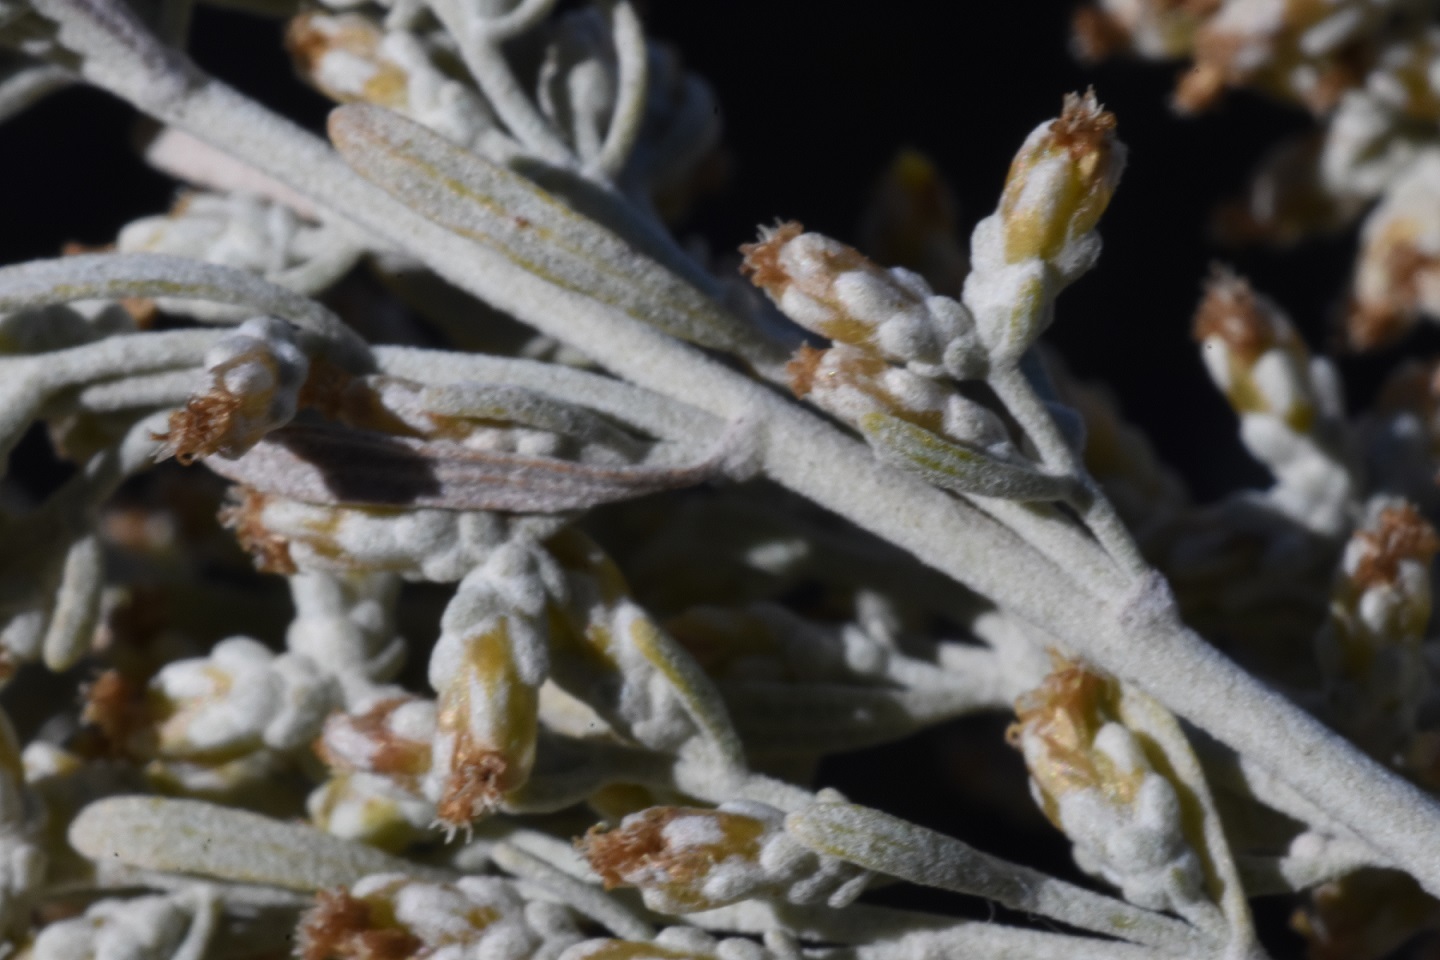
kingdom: Plantae
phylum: Tracheophyta
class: Magnoliopsida
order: Asterales
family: Asteraceae
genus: Artemisia
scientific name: Artemisia tridentata
